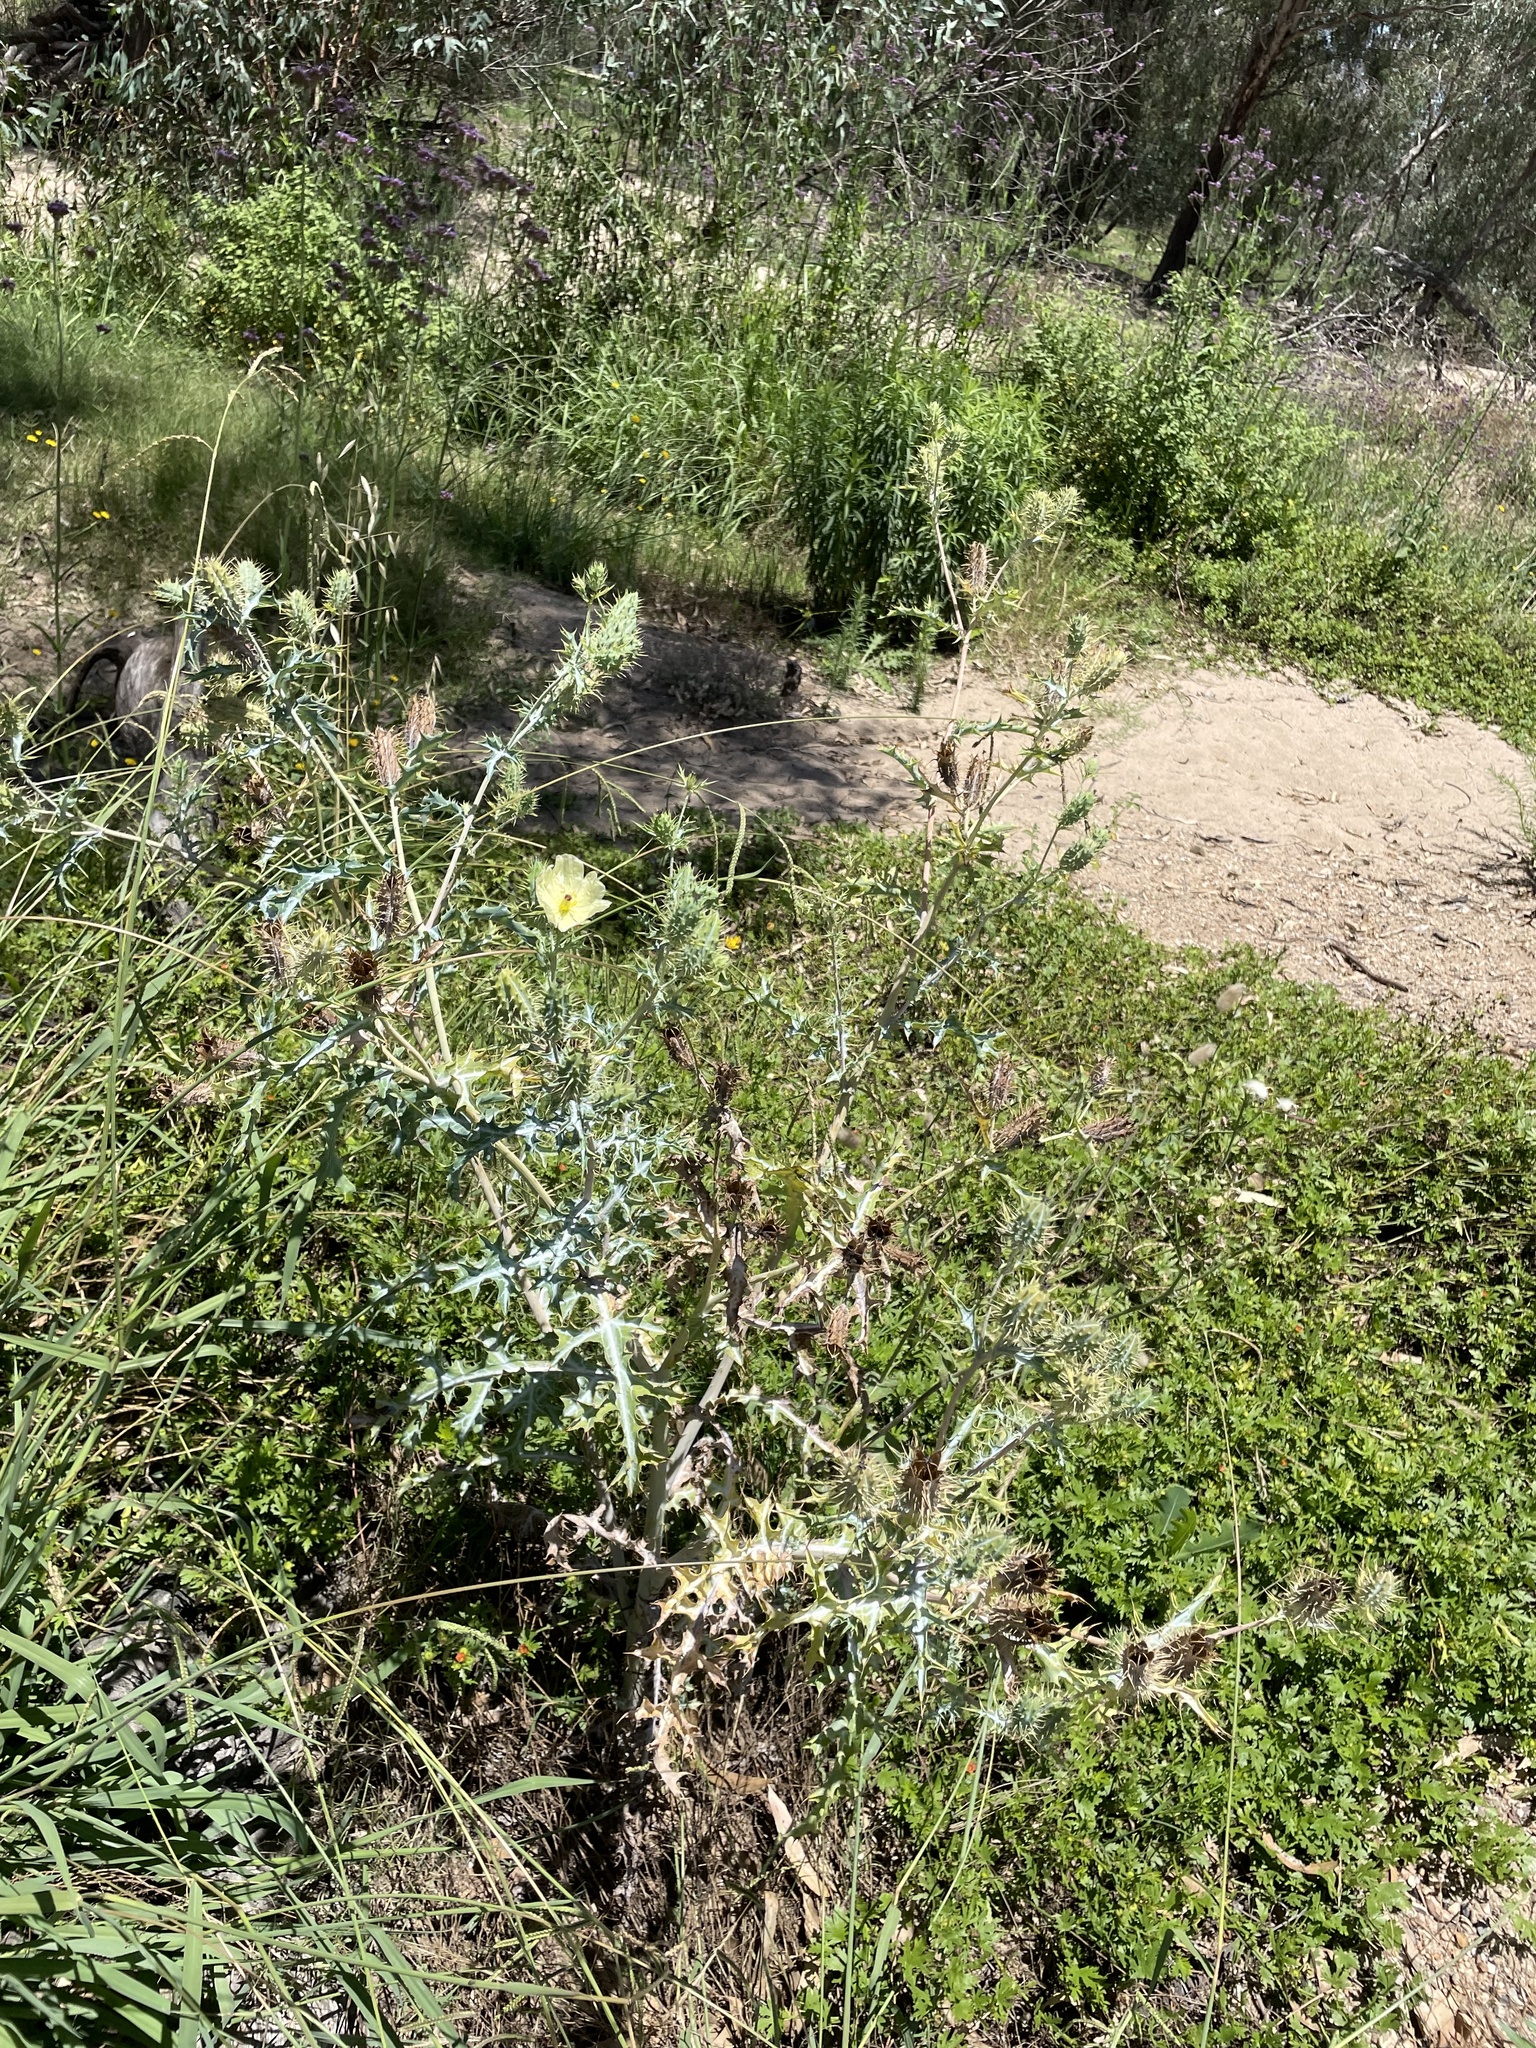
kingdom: Plantae
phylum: Tracheophyta
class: Magnoliopsida
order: Ranunculales
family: Papaveraceae
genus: Argemone
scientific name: Argemone ochroleuca
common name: White-flower mexican-poppy
